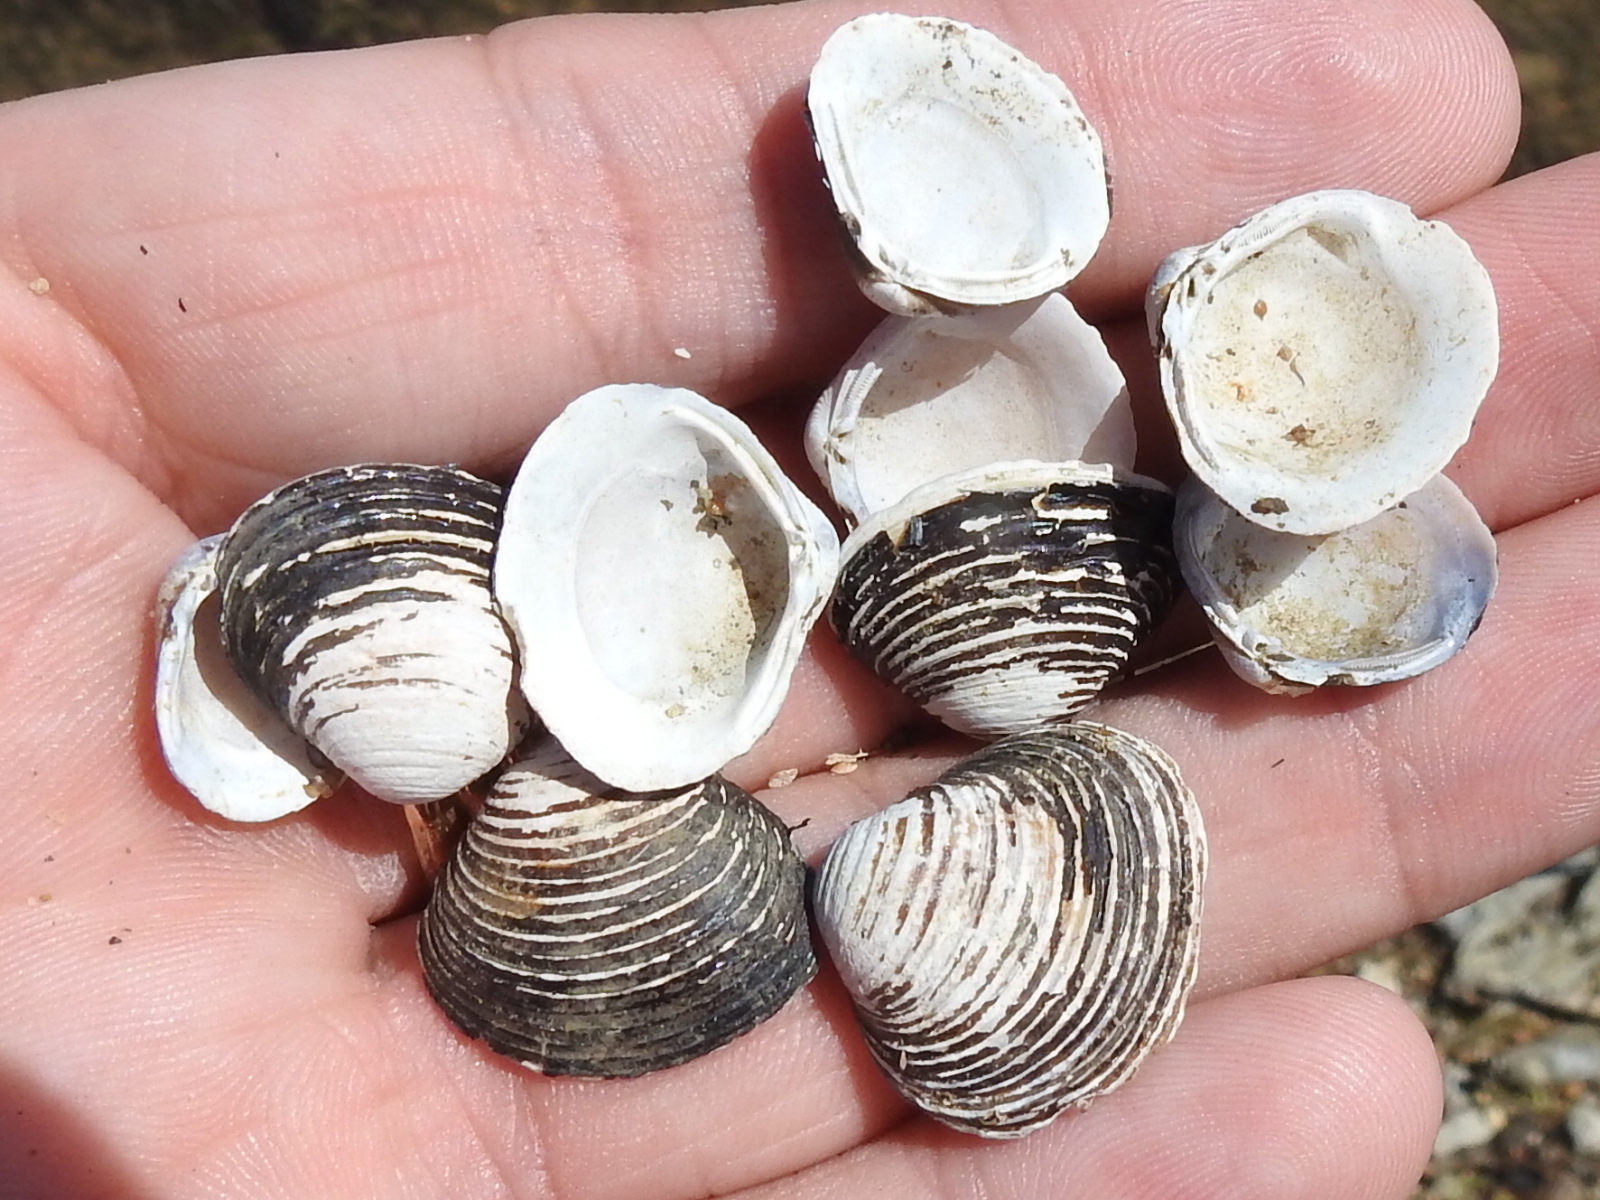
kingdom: Animalia
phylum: Mollusca
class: Bivalvia
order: Venerida
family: Cyrenidae
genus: Corbicula
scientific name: Corbicula fluminea
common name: Asian clam
